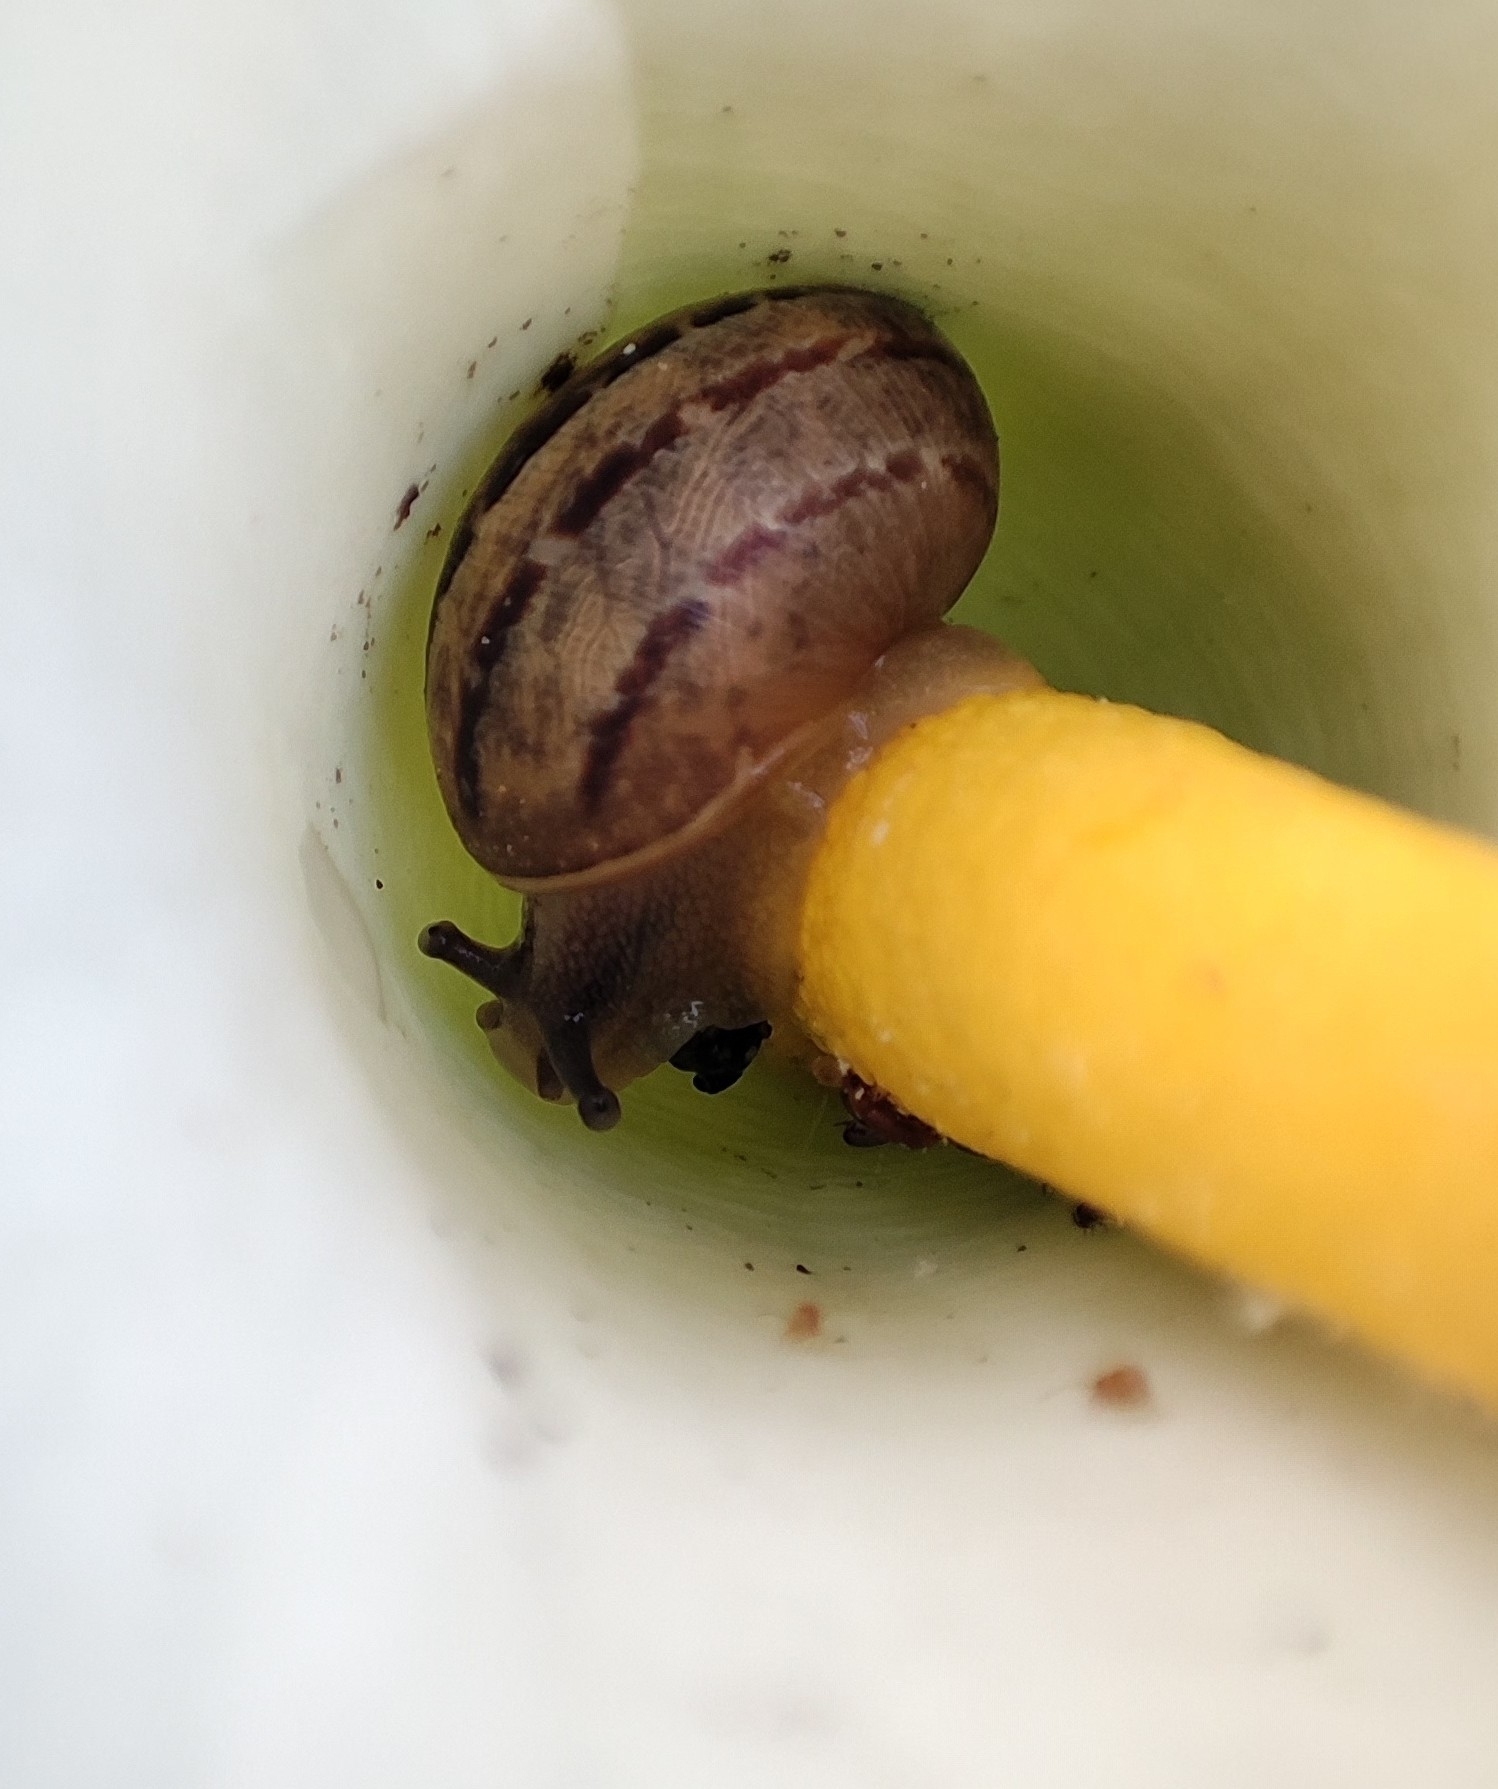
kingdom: Animalia
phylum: Mollusca
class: Gastropoda
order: Stylommatophora
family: Helicidae
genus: Cornu
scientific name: Cornu aspersum
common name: Brown garden snail
